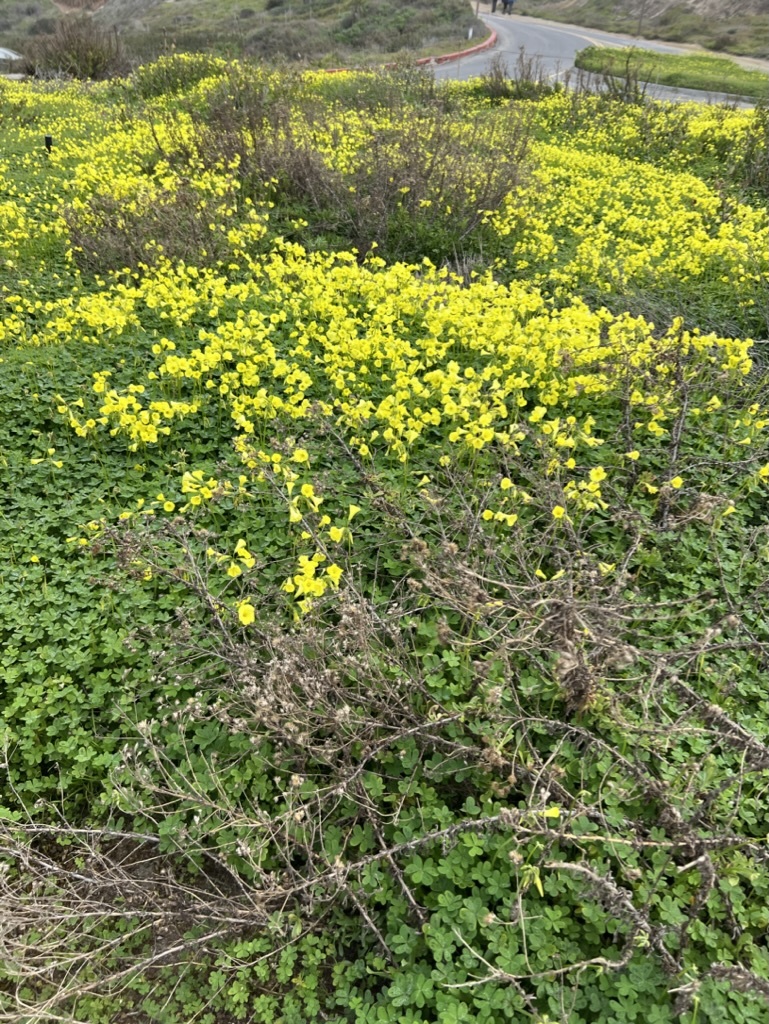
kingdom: Plantae
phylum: Tracheophyta
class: Magnoliopsida
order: Oxalidales
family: Oxalidaceae
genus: Oxalis
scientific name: Oxalis pes-caprae
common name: Bermuda-buttercup
